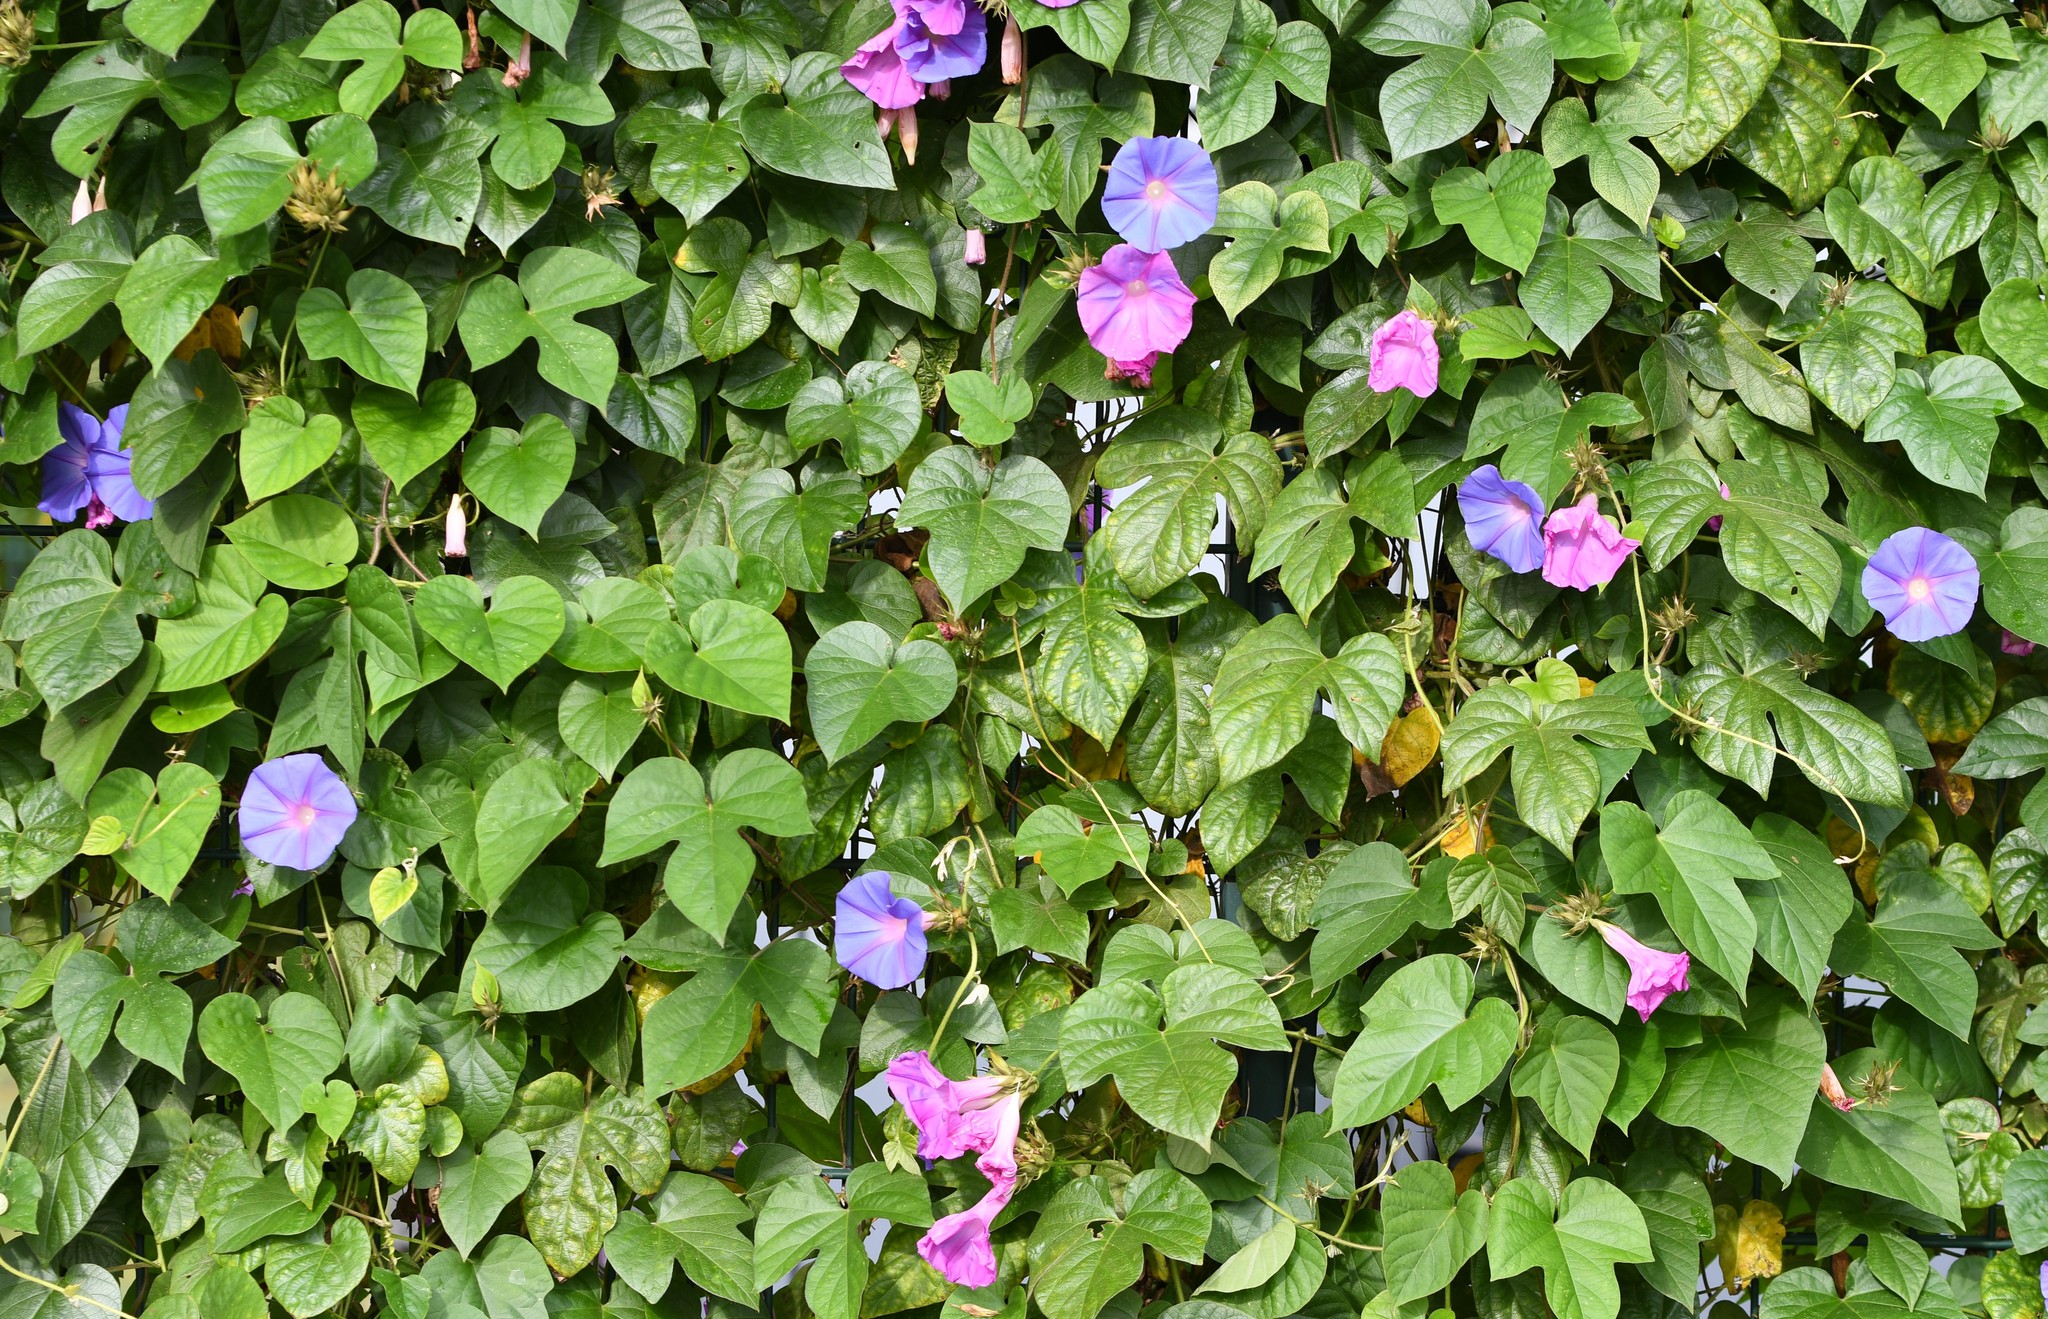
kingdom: Plantae
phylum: Tracheophyta
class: Magnoliopsida
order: Solanales
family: Convolvulaceae
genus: Ipomoea
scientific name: Ipomoea indica
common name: Blue dawnflower
